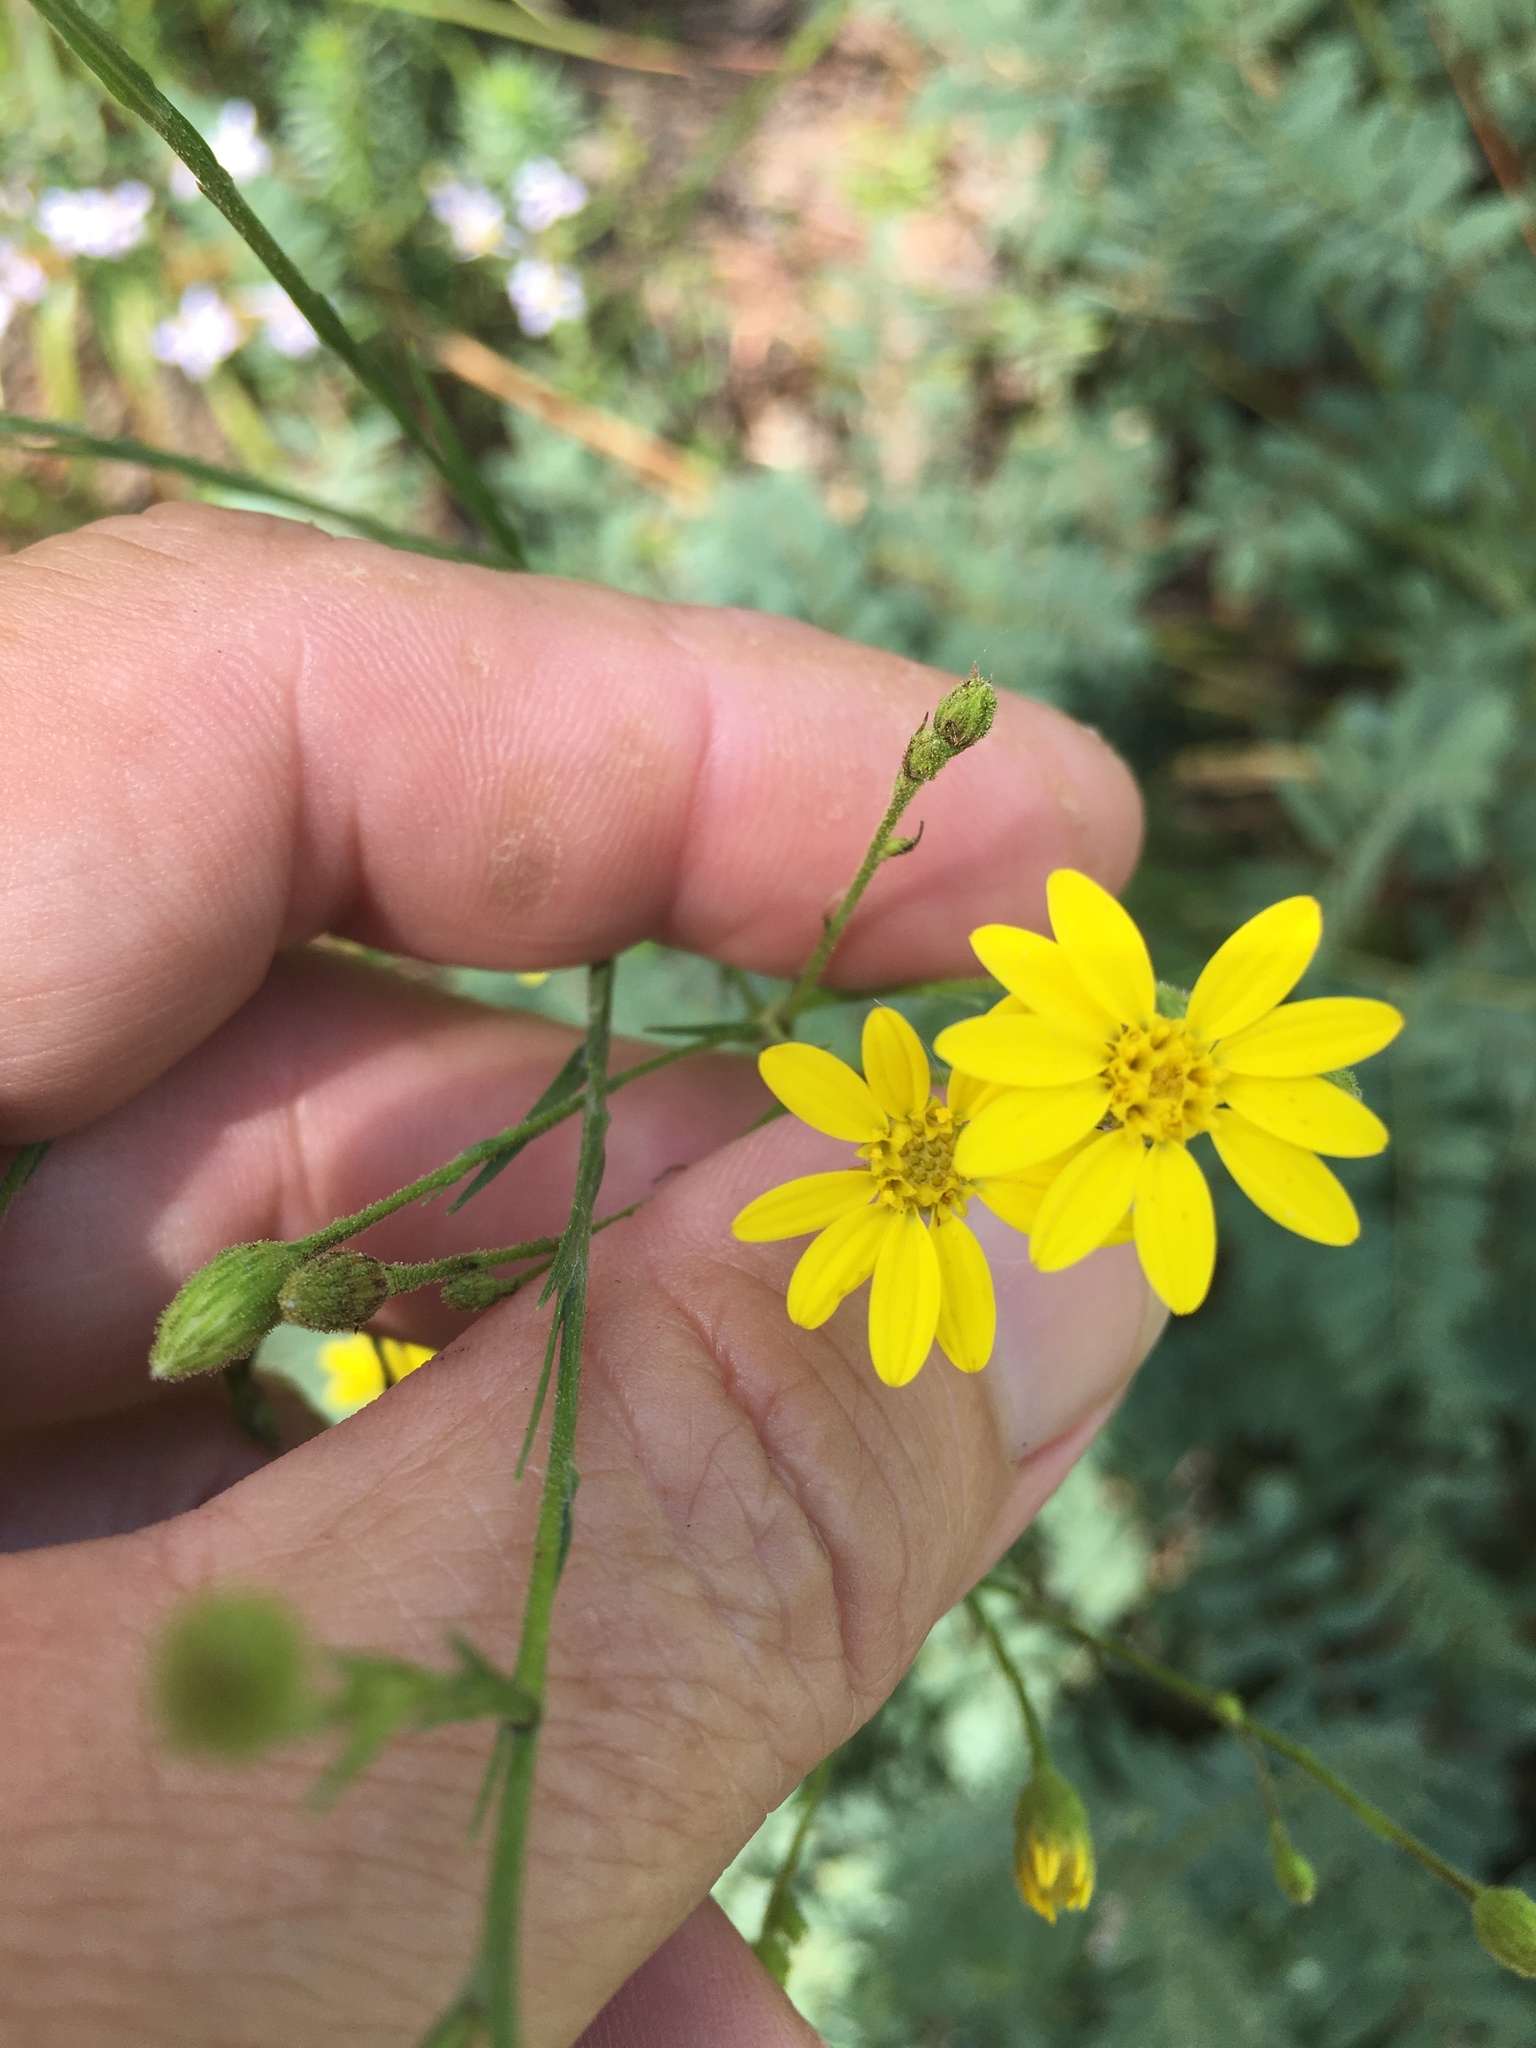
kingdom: Plantae
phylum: Tracheophyta
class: Magnoliopsida
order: Asterales
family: Asteraceae
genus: Pityopsis
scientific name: Pityopsis aspera
